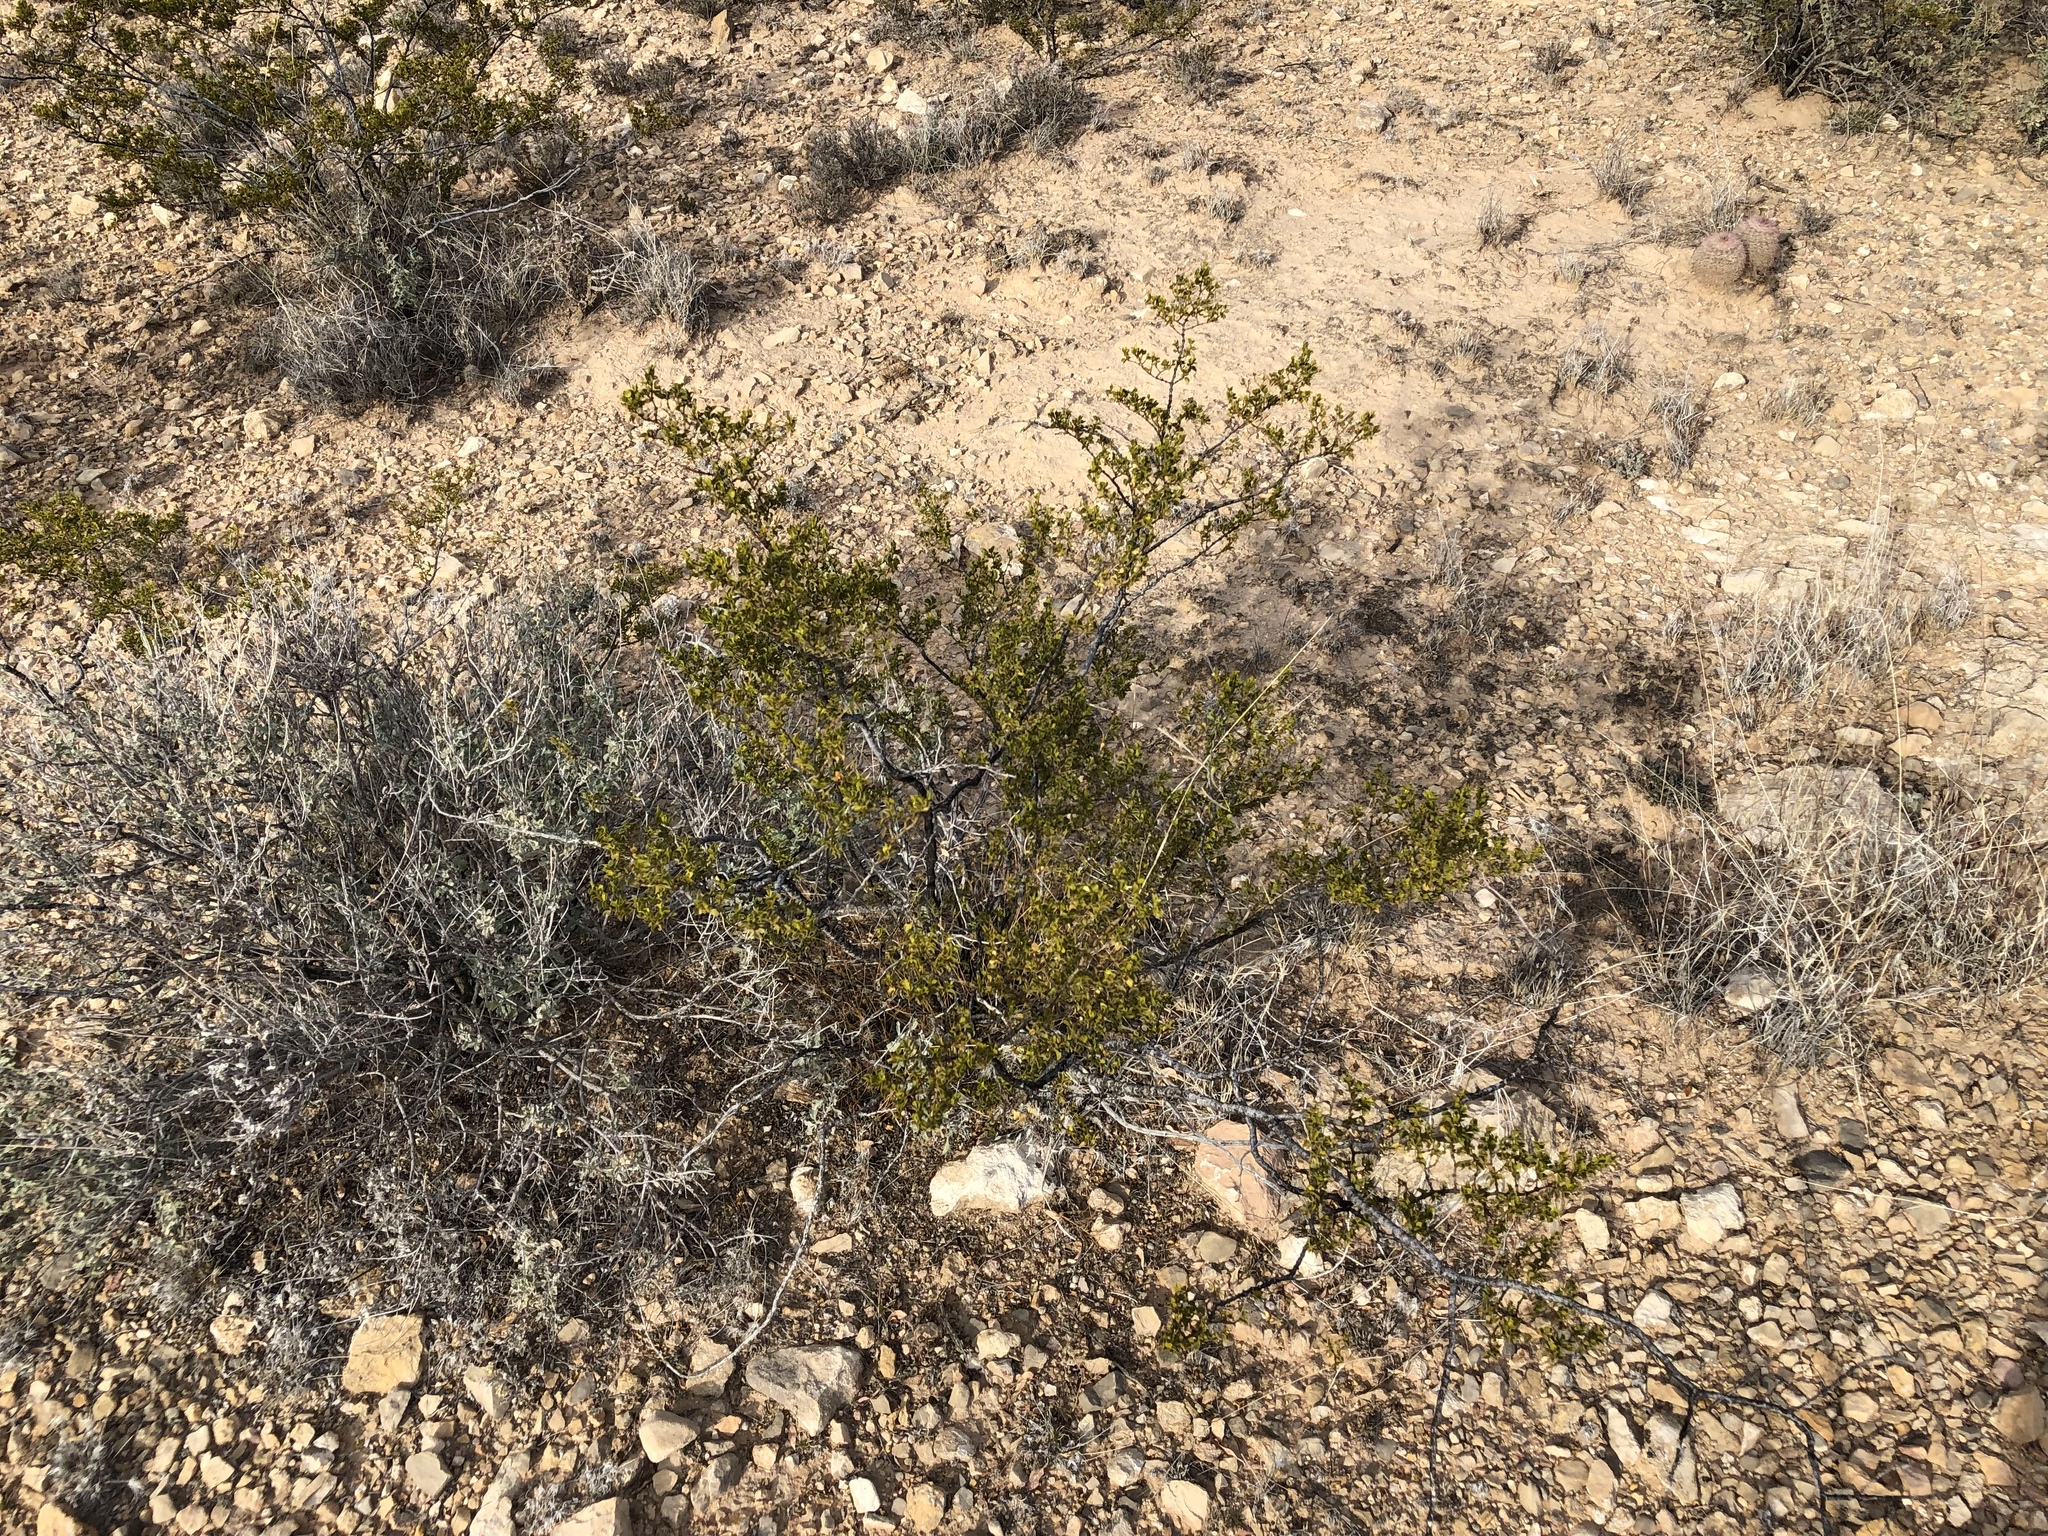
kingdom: Plantae
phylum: Tracheophyta
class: Magnoliopsida
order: Zygophyllales
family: Zygophyllaceae
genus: Larrea
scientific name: Larrea tridentata
